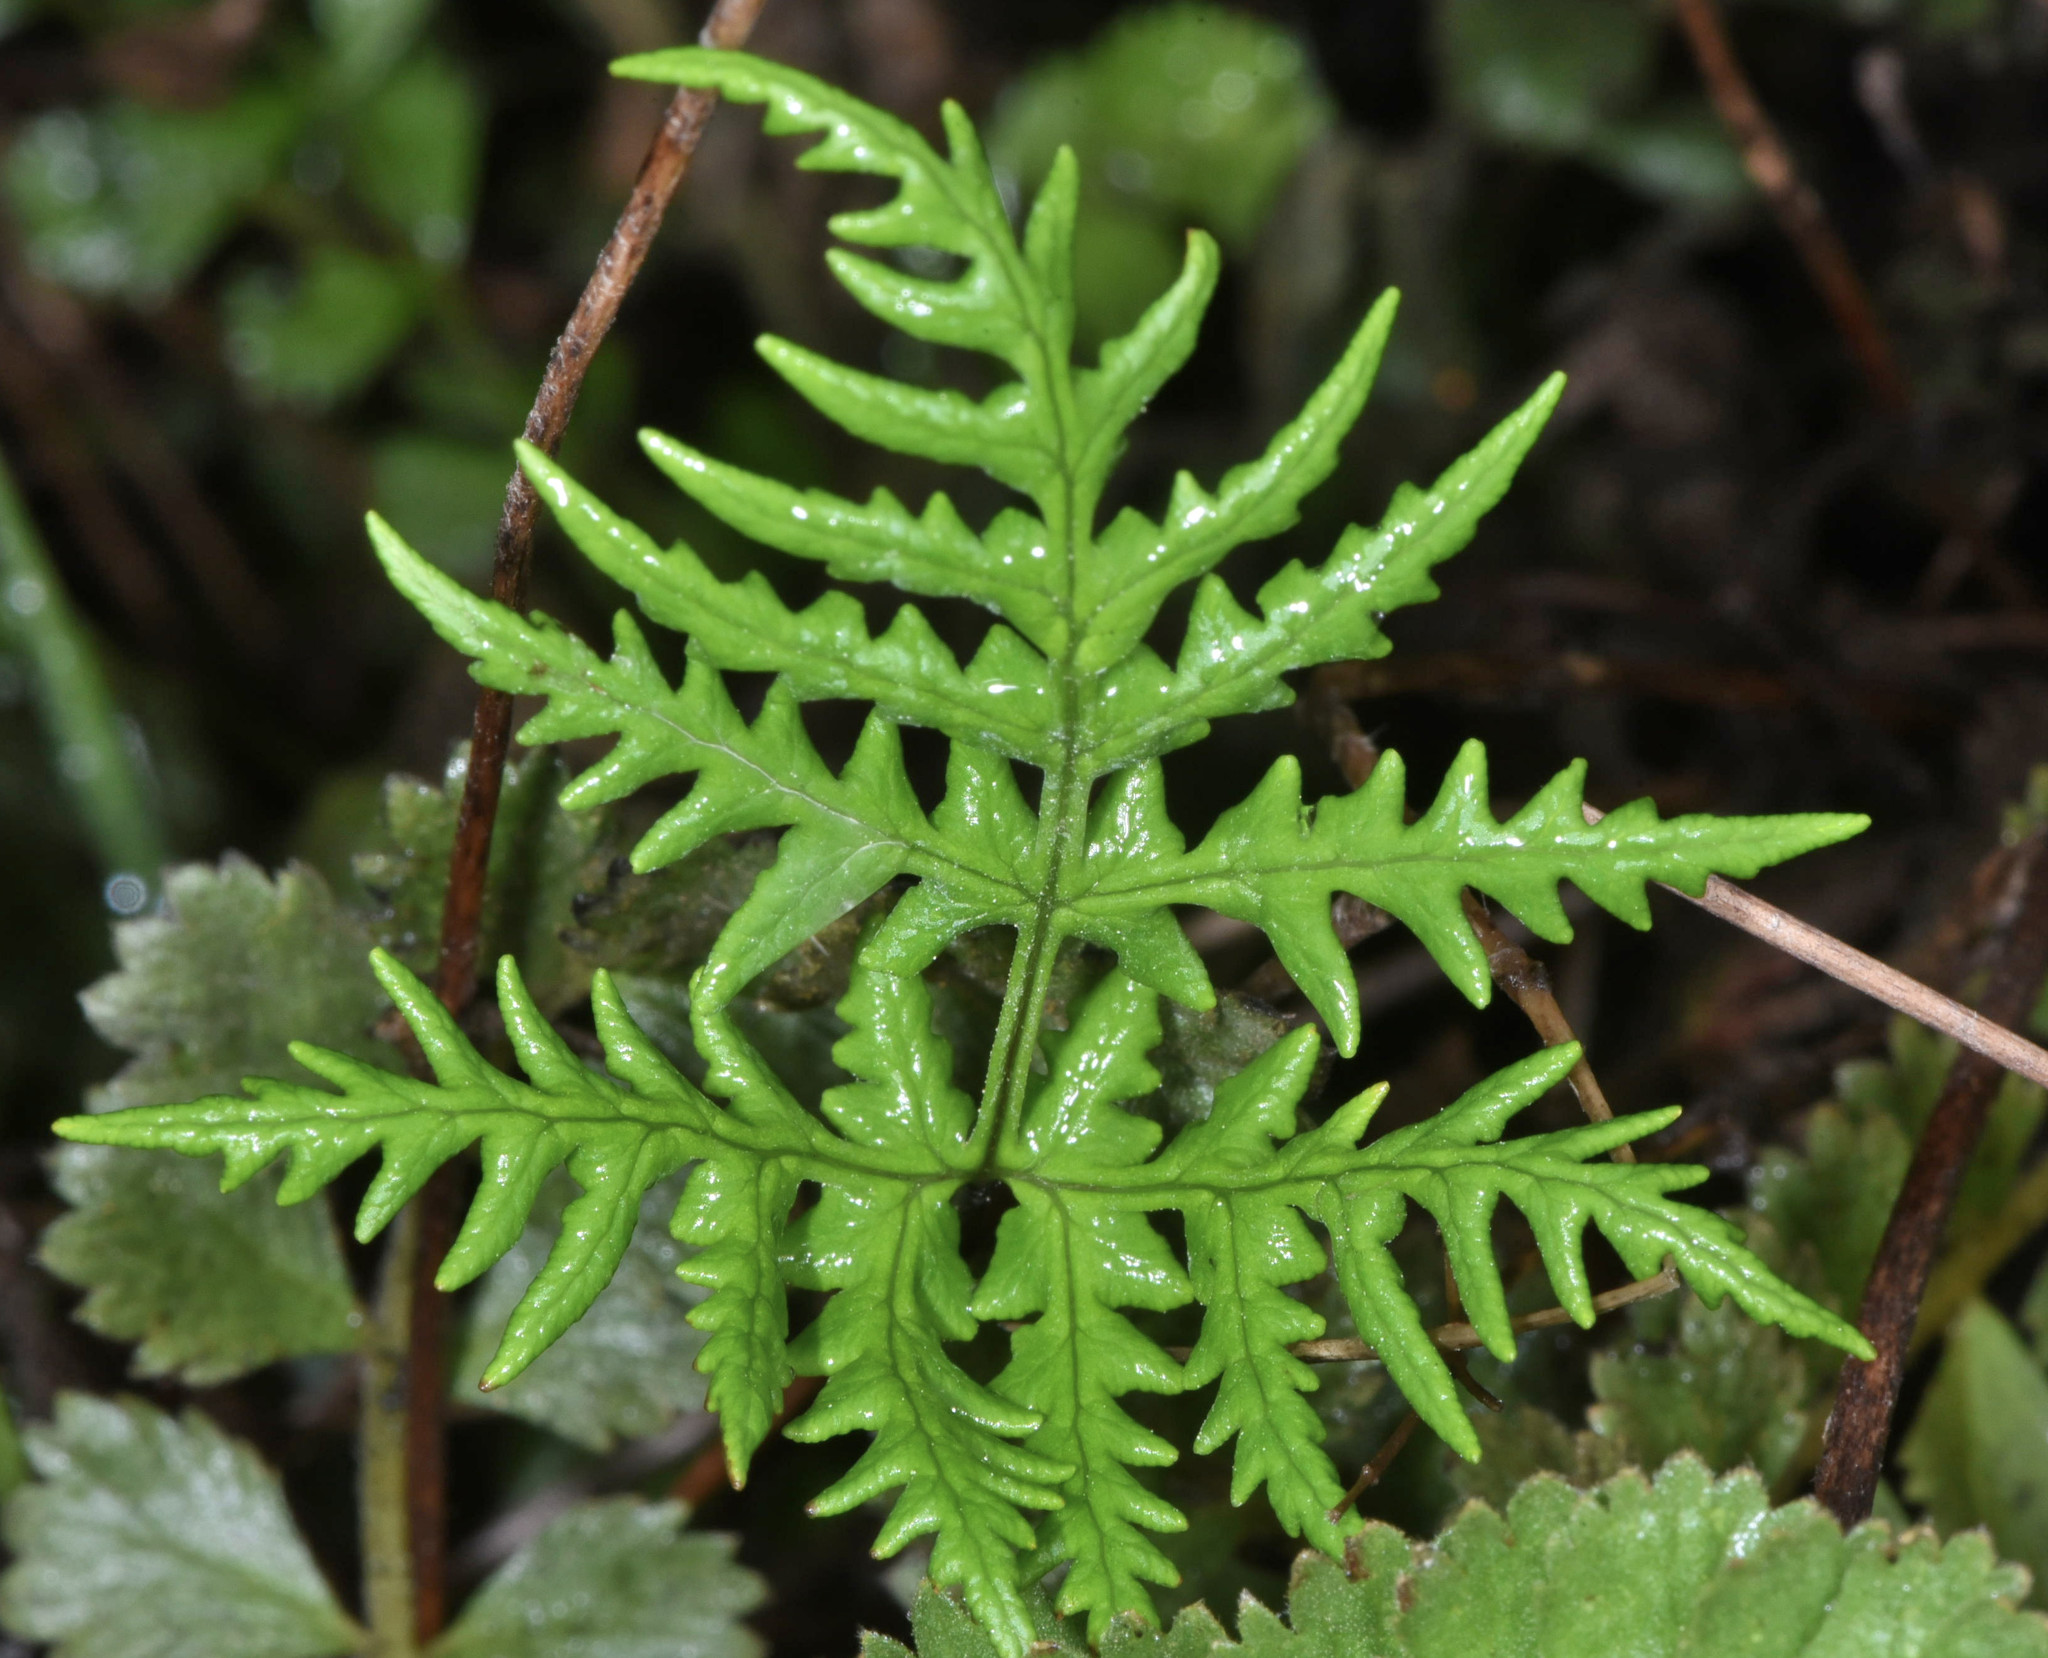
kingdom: Plantae
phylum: Tracheophyta
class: Polypodiopsida
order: Polypodiales
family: Pteridaceae
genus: Pentagramma
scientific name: Pentagramma triangularis
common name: Gold fern
